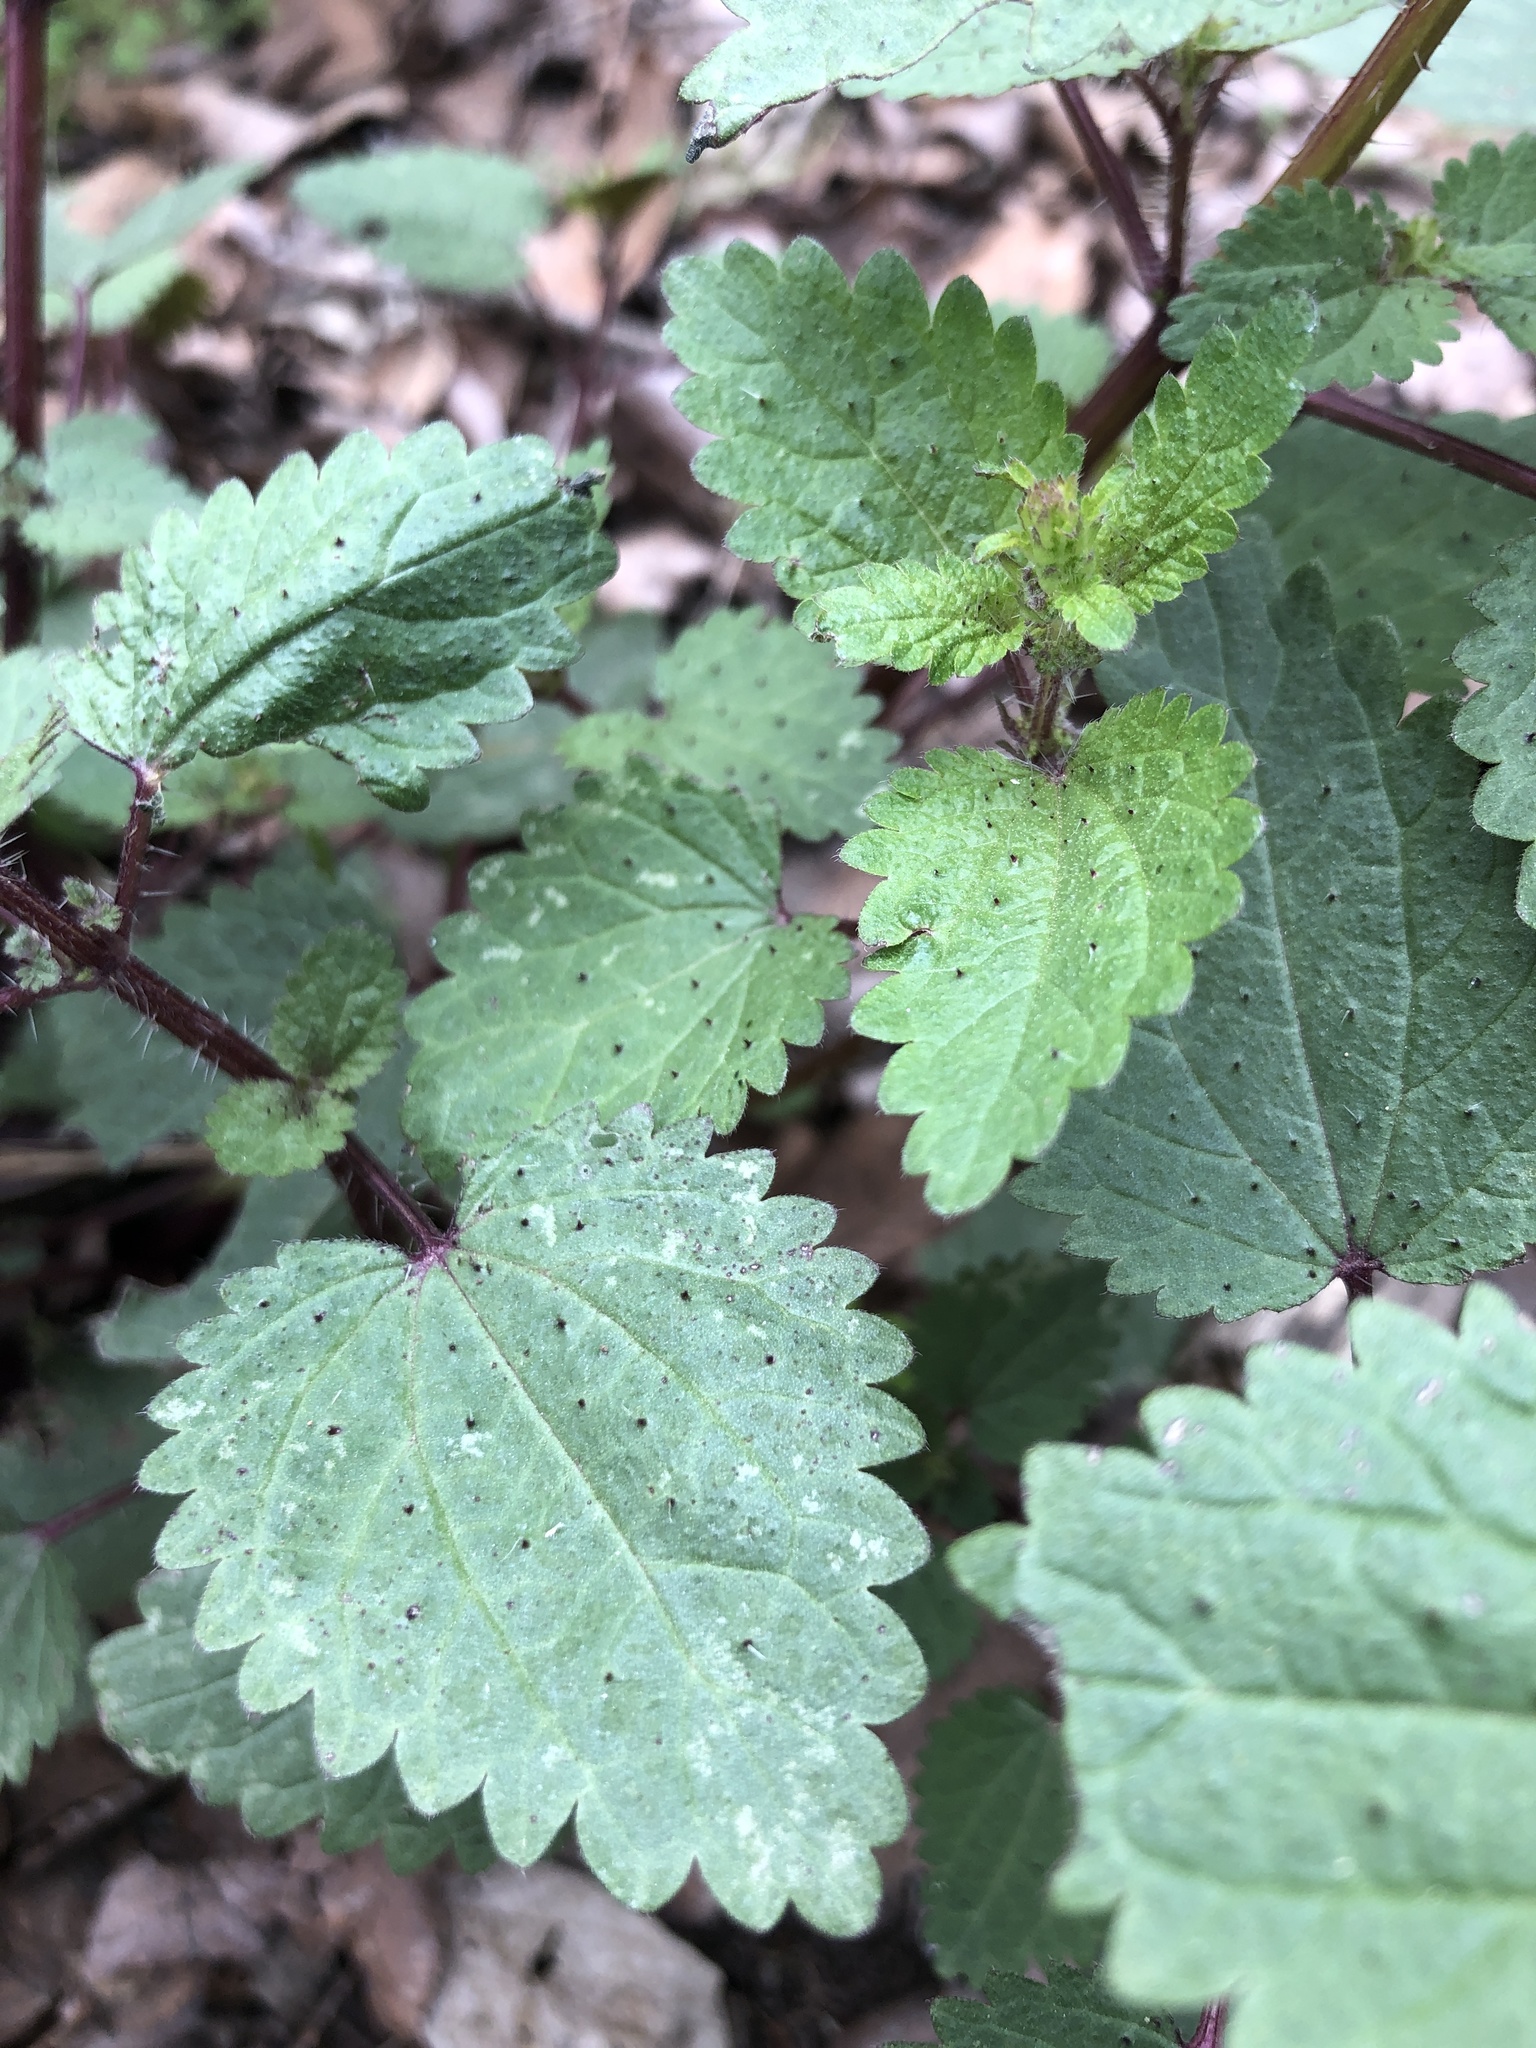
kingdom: Plantae
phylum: Tracheophyta
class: Magnoliopsida
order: Rosales
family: Urticaceae
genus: Urtica
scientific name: Urtica chamaedryoides
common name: Heart-leaf nettle
